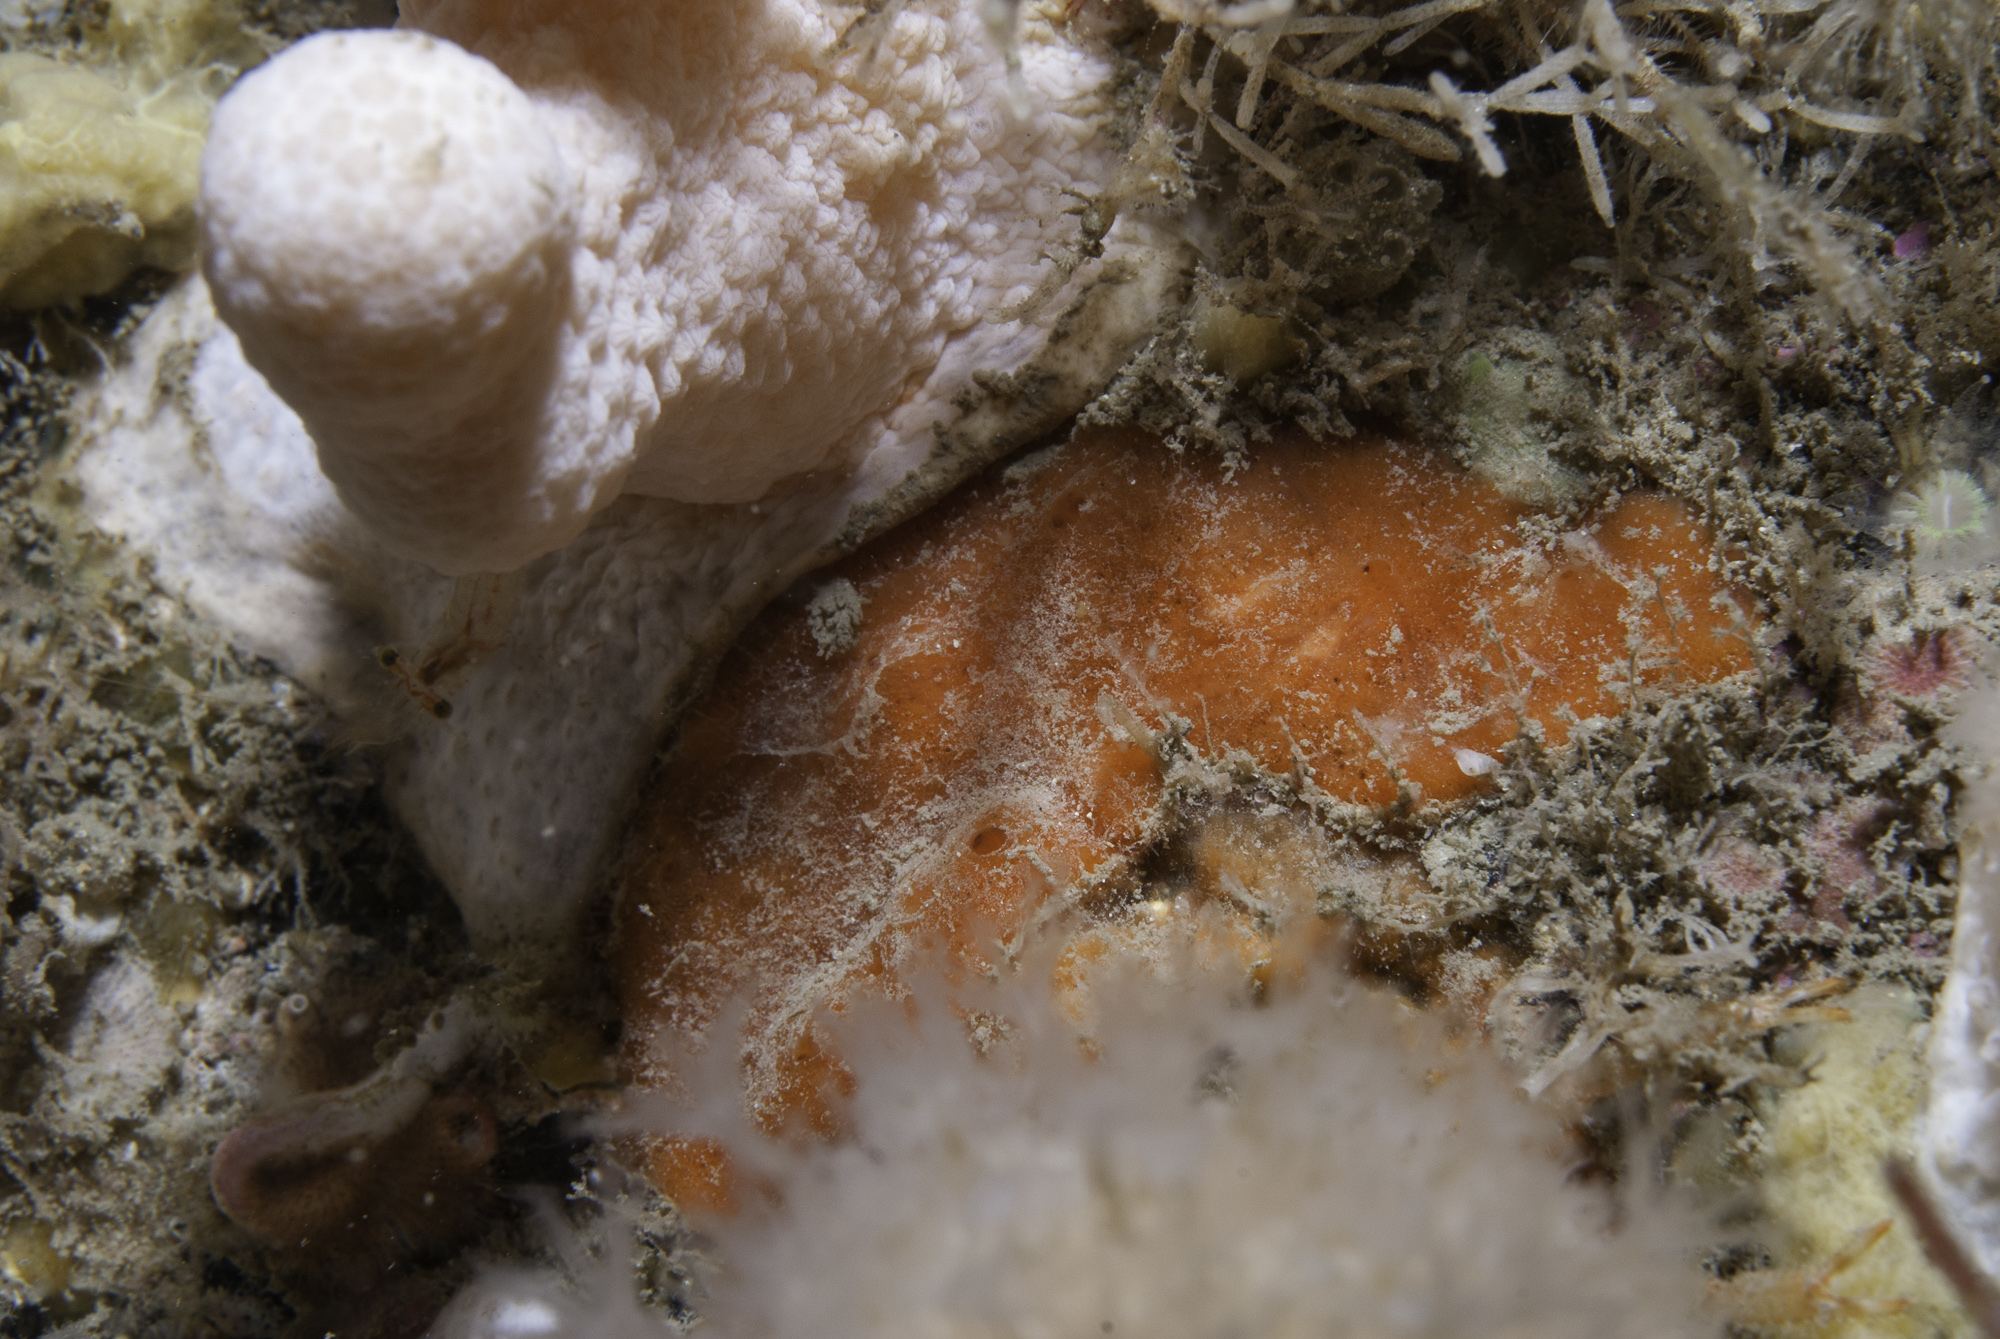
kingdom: Animalia
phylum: Porifera
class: Demospongiae
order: Poecilosclerida
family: Microcionidae
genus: Antho
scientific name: Antho involvens
